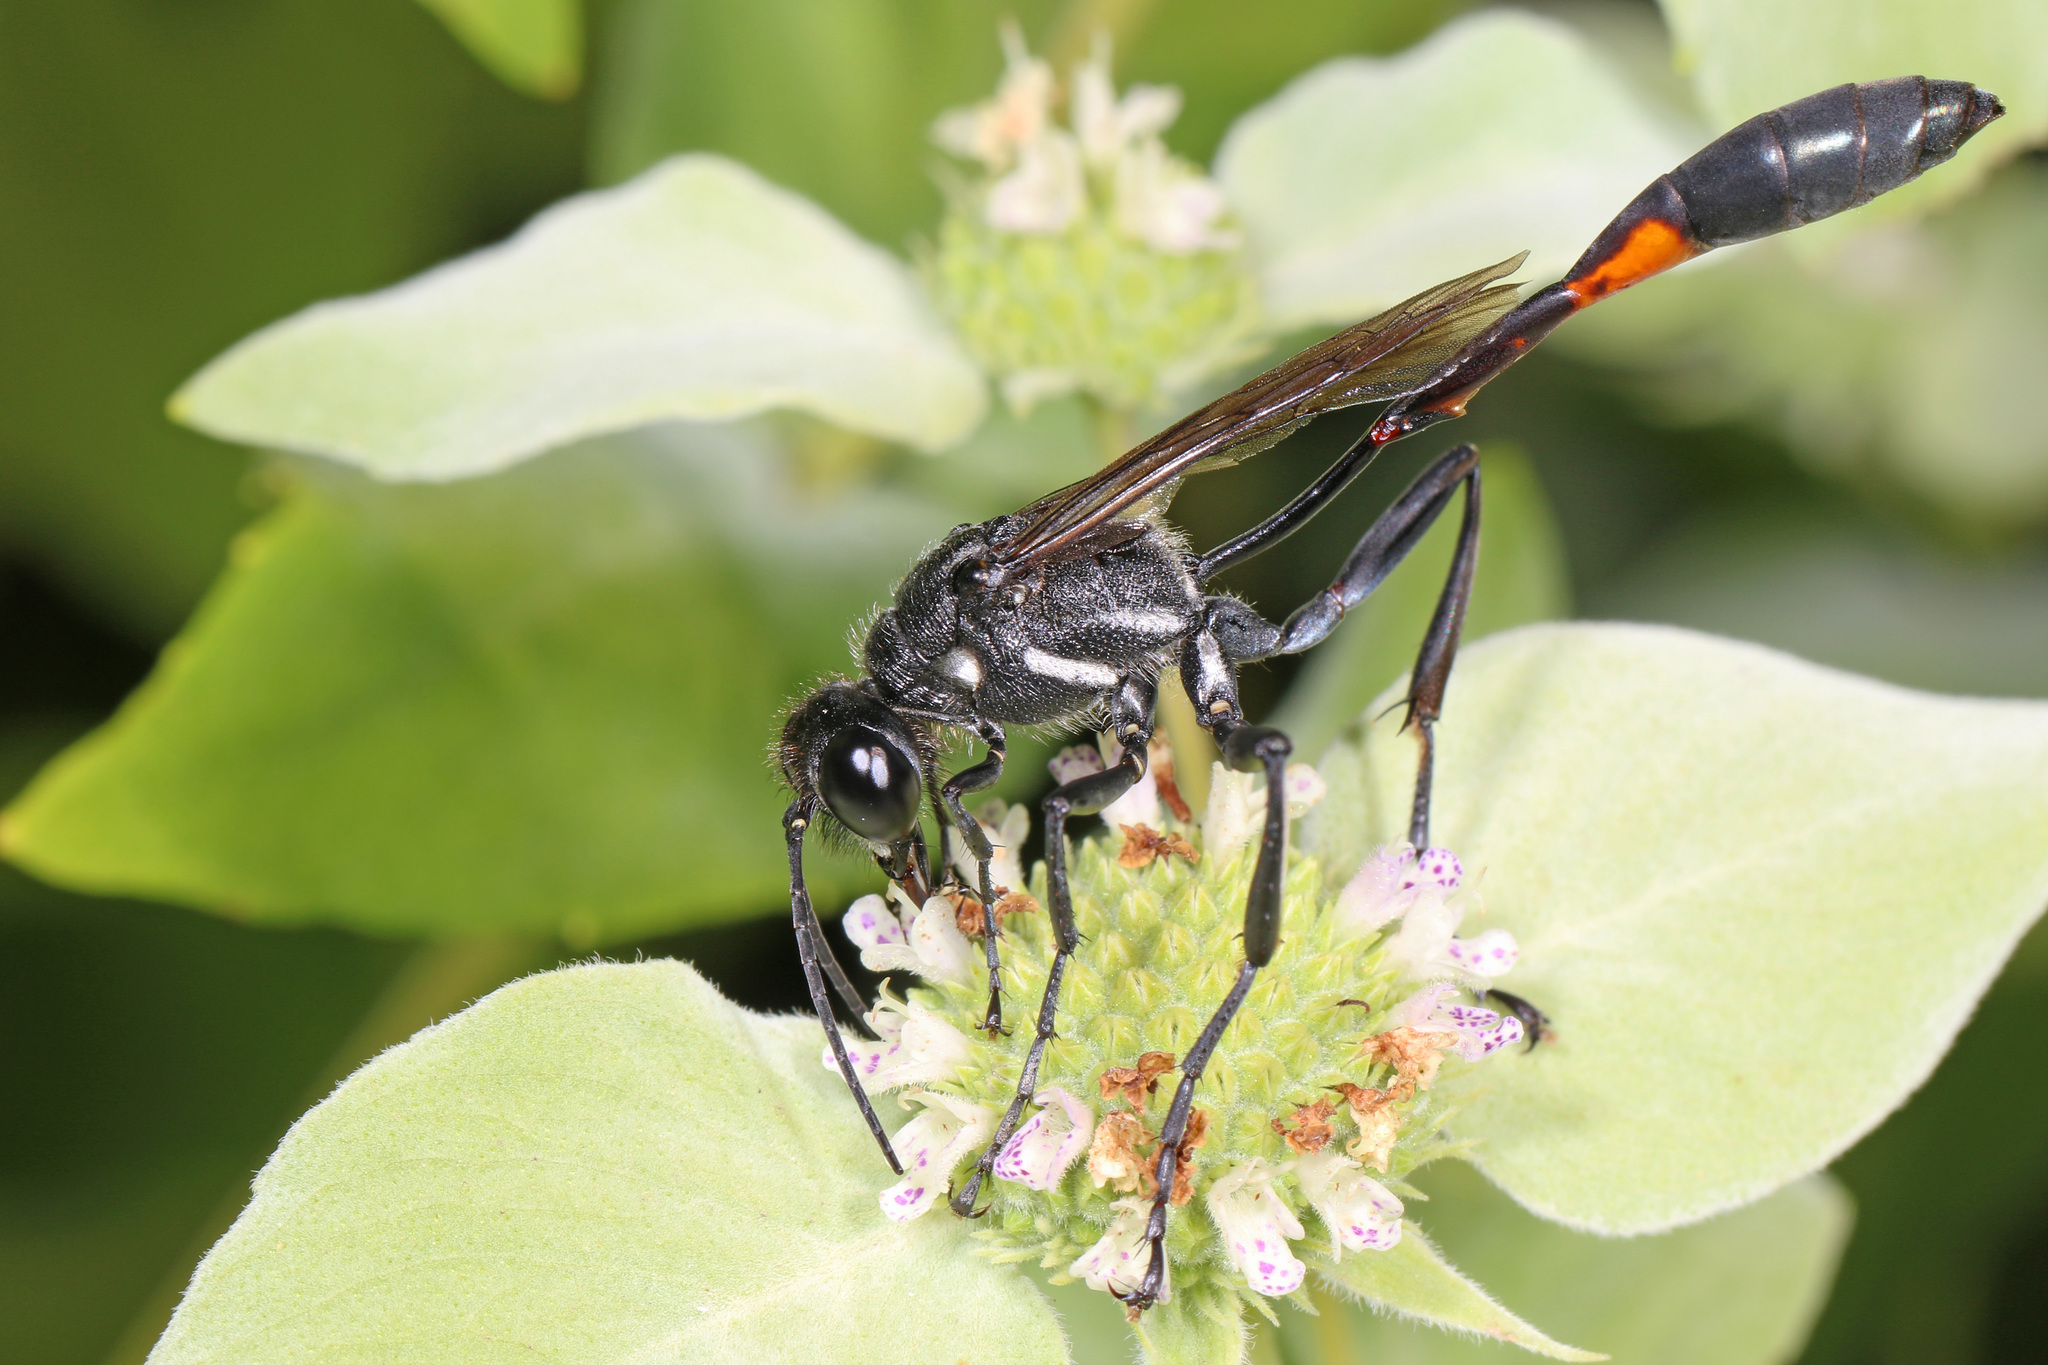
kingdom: Animalia
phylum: Arthropoda
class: Insecta
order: Hymenoptera
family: Sphecidae
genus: Ammophila
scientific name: Ammophila procera
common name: Common thread-waisted wasp
